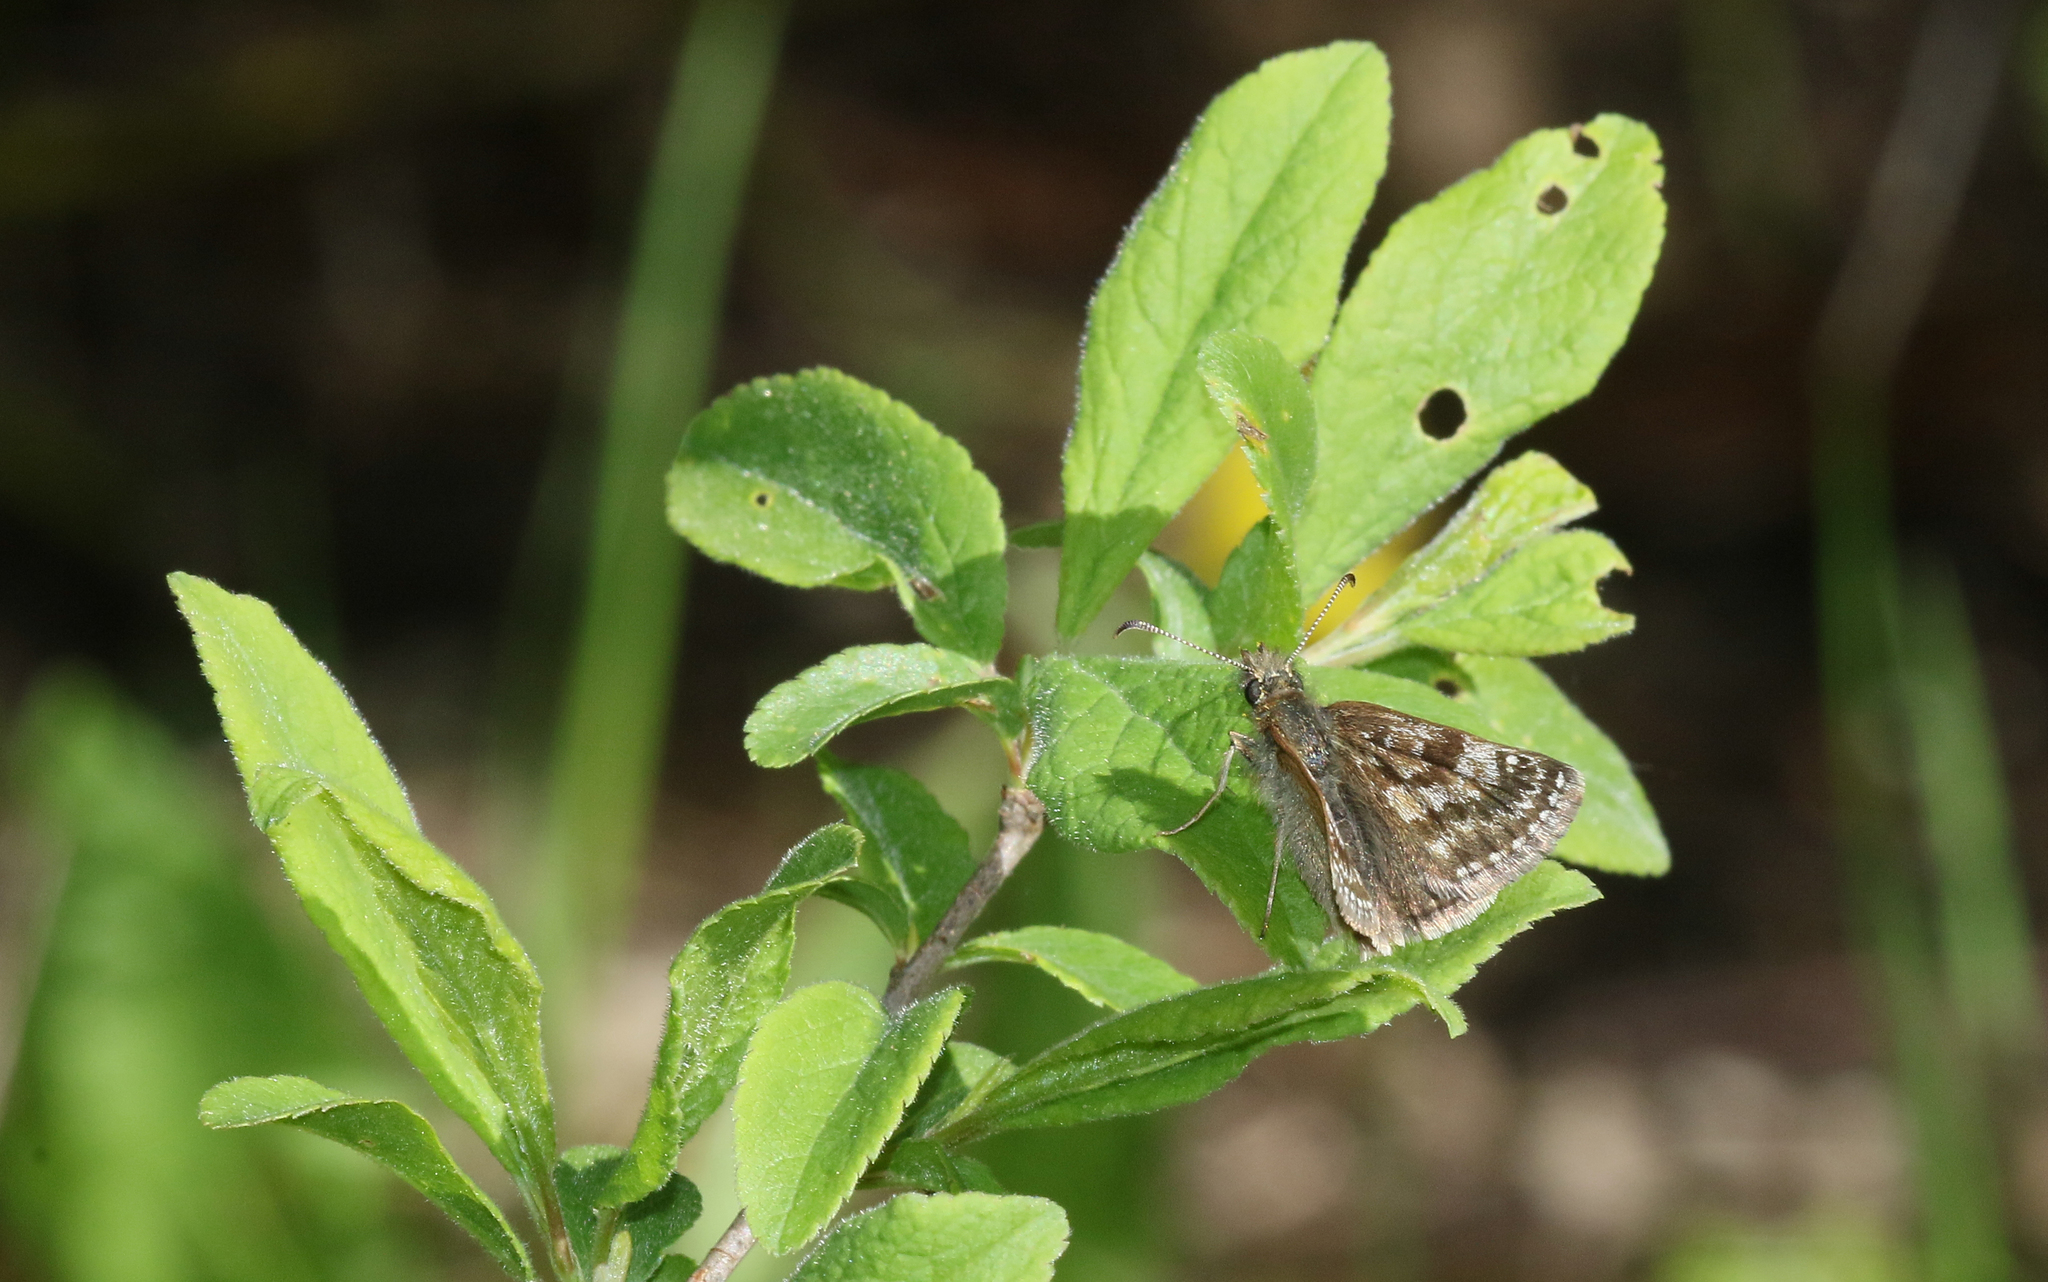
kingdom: Animalia
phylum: Arthropoda
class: Insecta
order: Lepidoptera
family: Hesperiidae
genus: Erynnis
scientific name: Erynnis tages
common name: Dingy skipper
